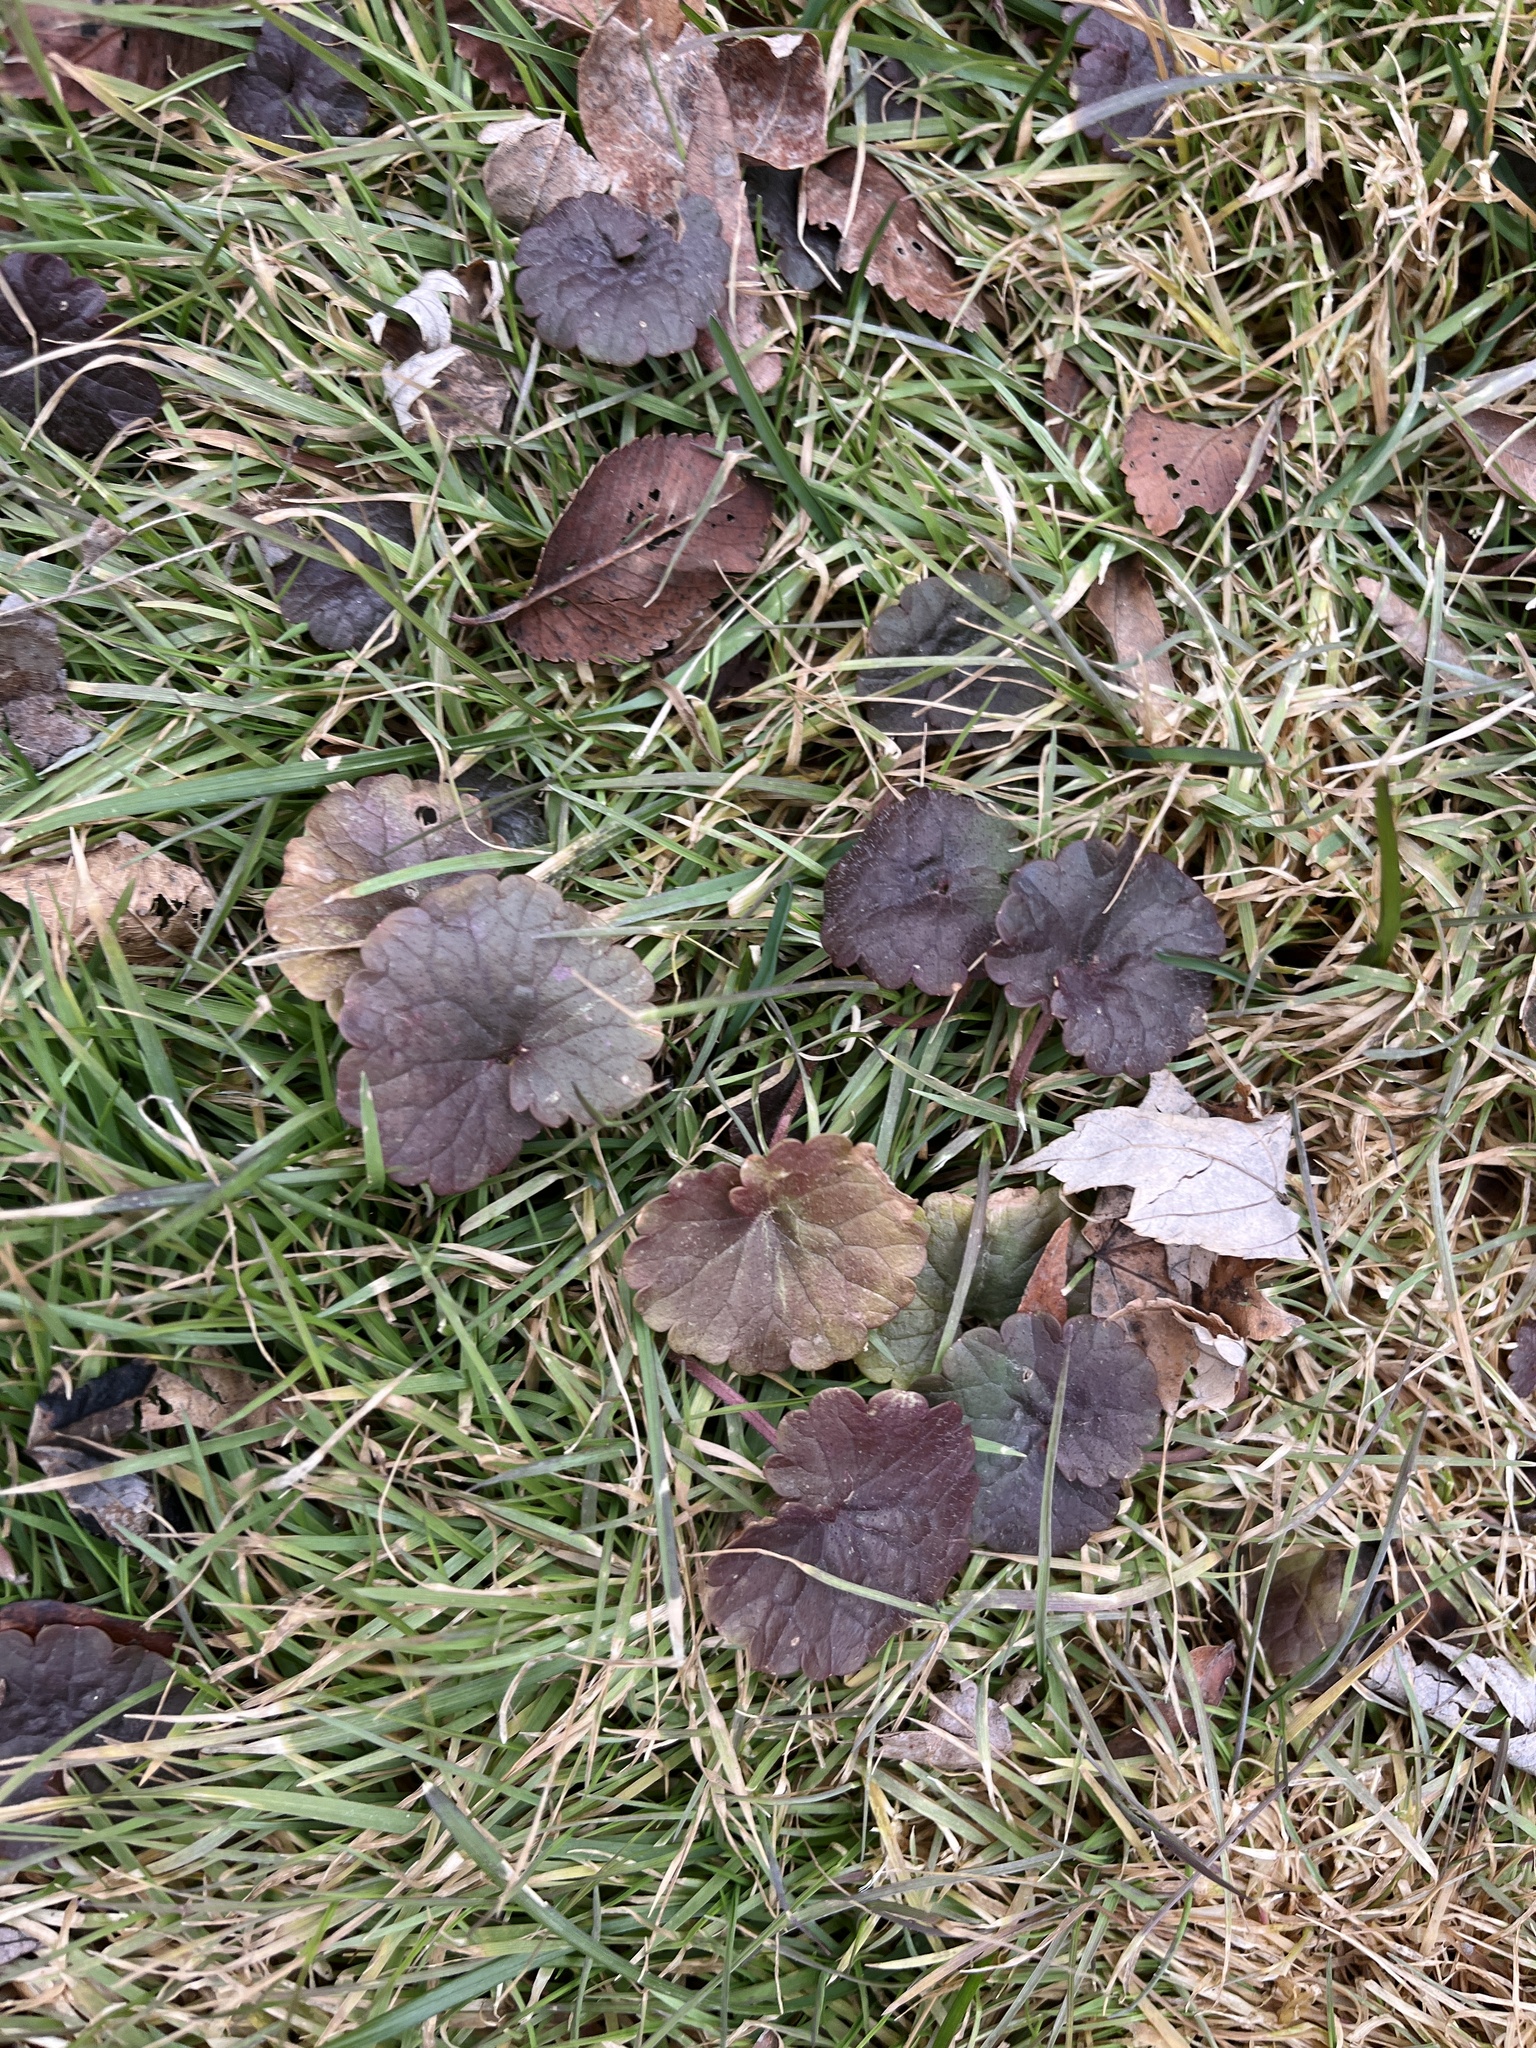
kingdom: Plantae
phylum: Tracheophyta
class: Magnoliopsida
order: Lamiales
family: Lamiaceae
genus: Glechoma
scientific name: Glechoma hederacea
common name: Ground ivy
